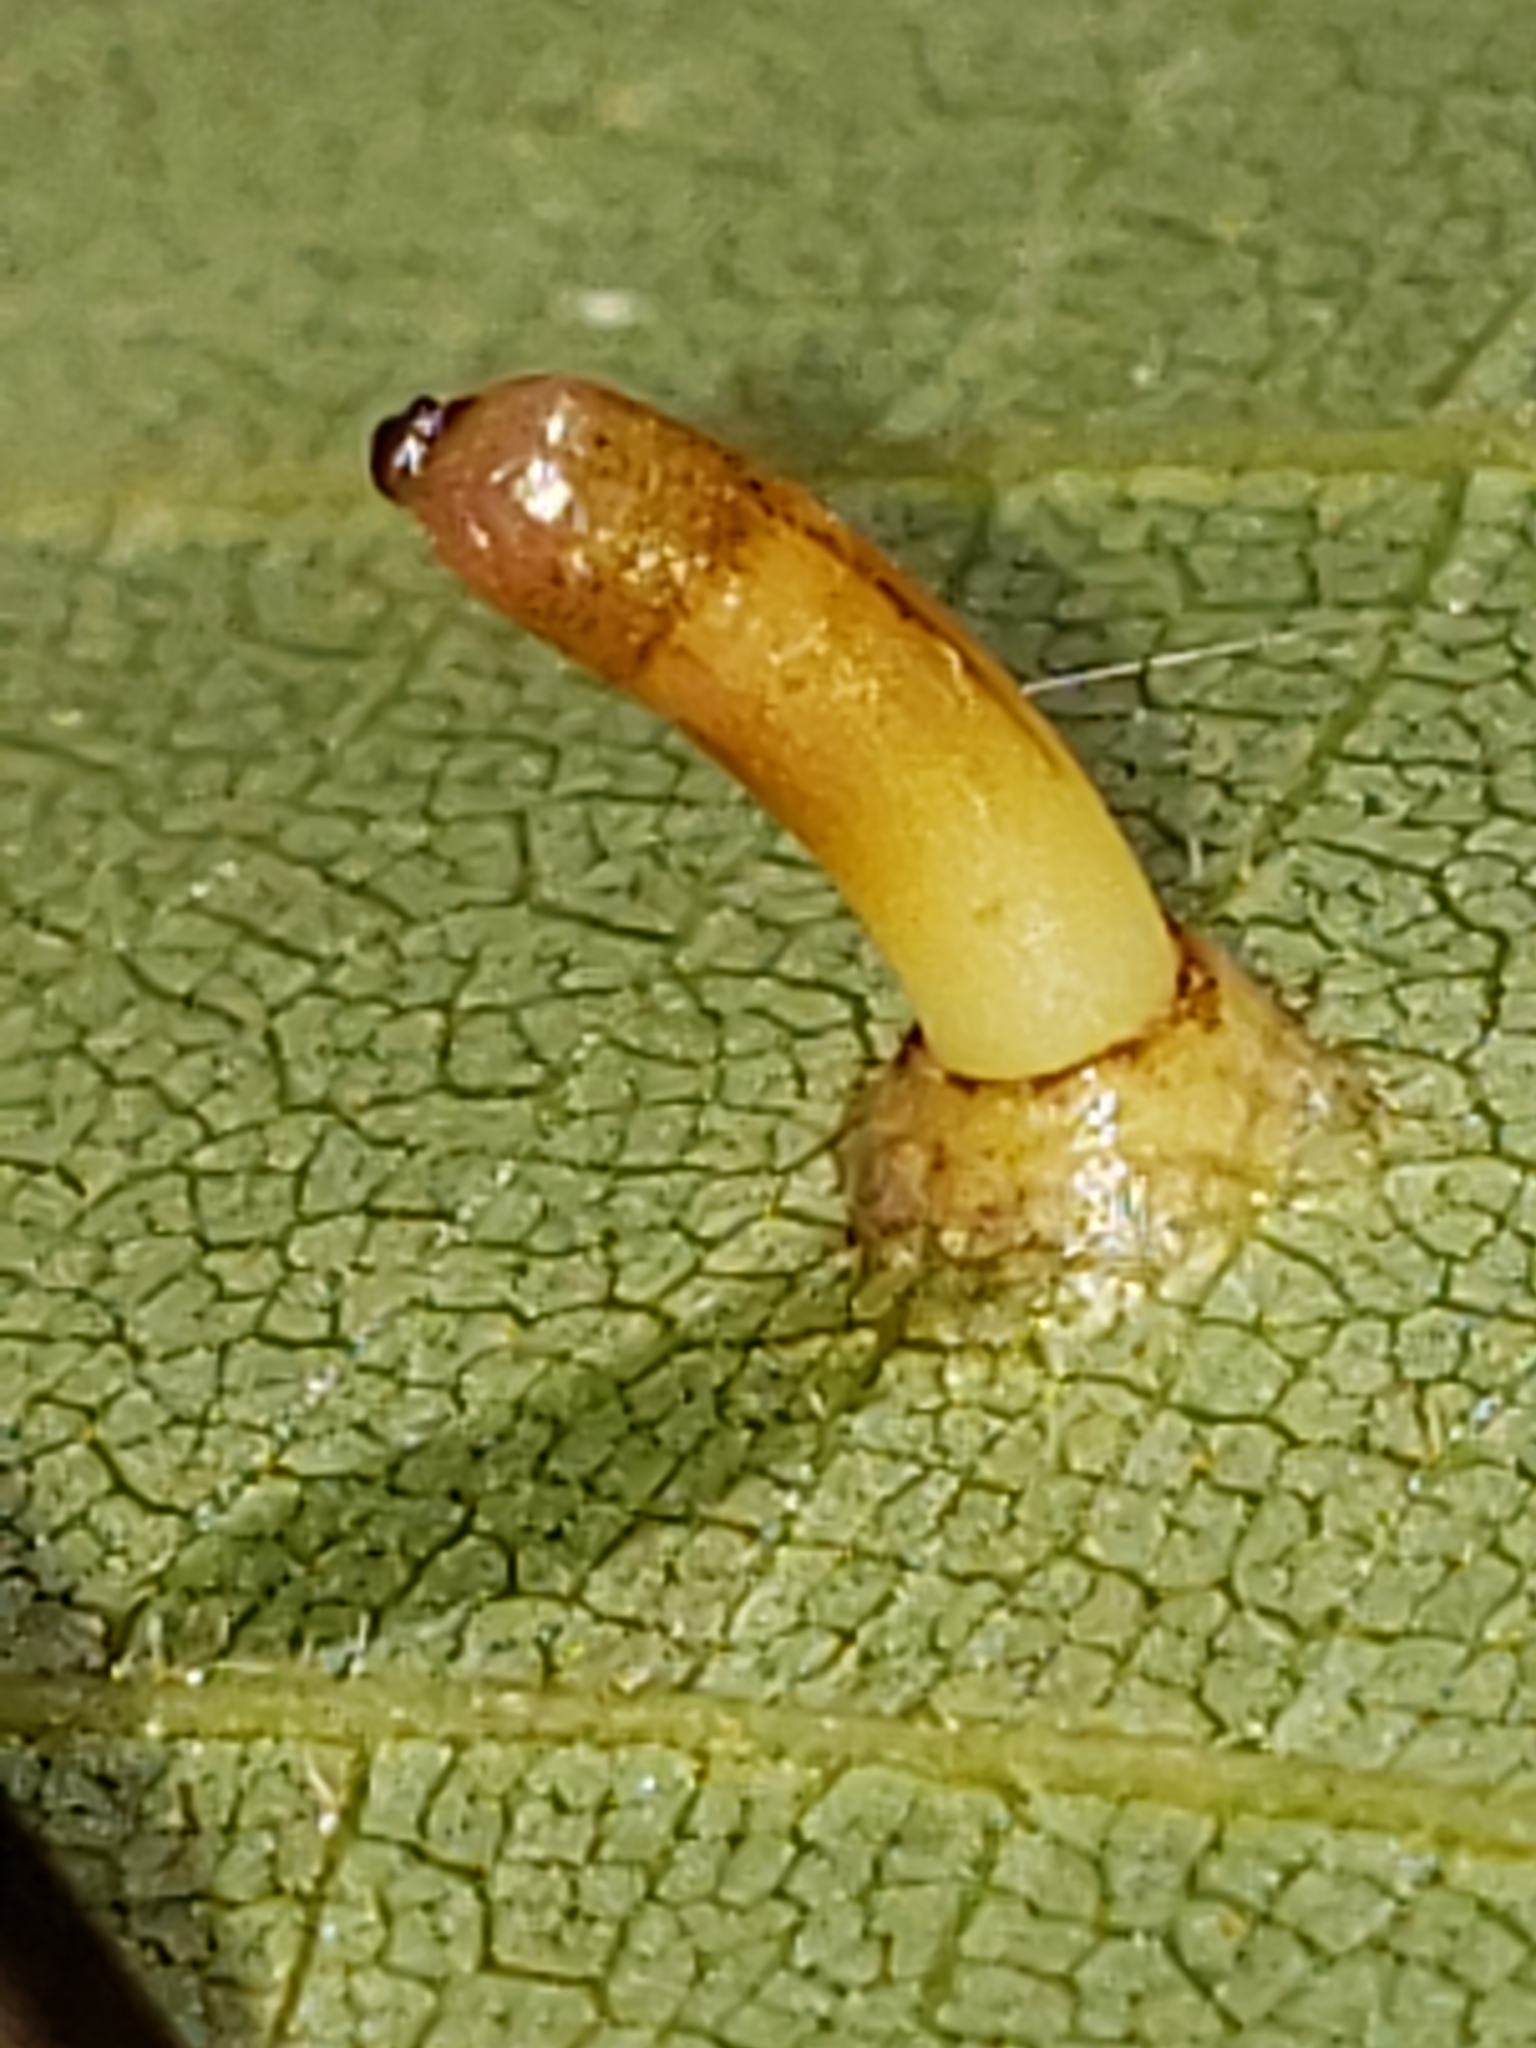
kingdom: Animalia
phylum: Arthropoda
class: Insecta
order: Diptera
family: Cecidomyiidae
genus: Caryomyia
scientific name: Caryomyia tubicola
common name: Hickory bullet gall midge
